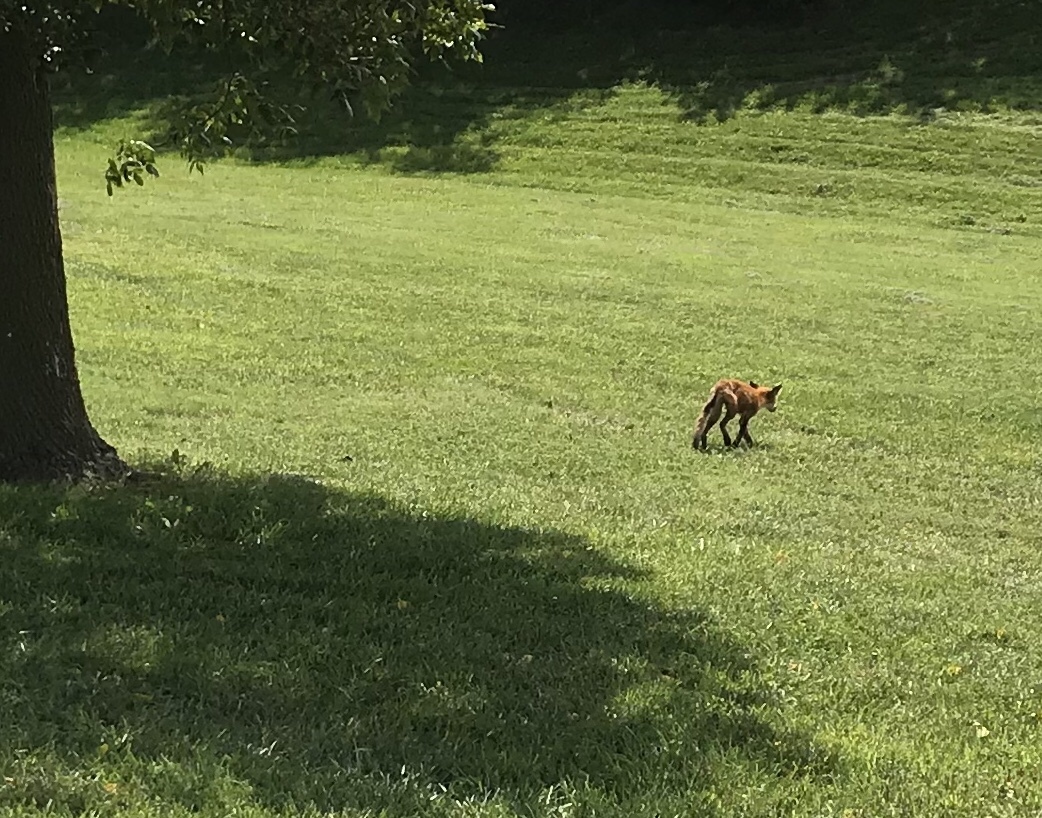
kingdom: Animalia
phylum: Chordata
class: Mammalia
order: Carnivora
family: Canidae
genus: Vulpes
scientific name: Vulpes vulpes
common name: Red fox
